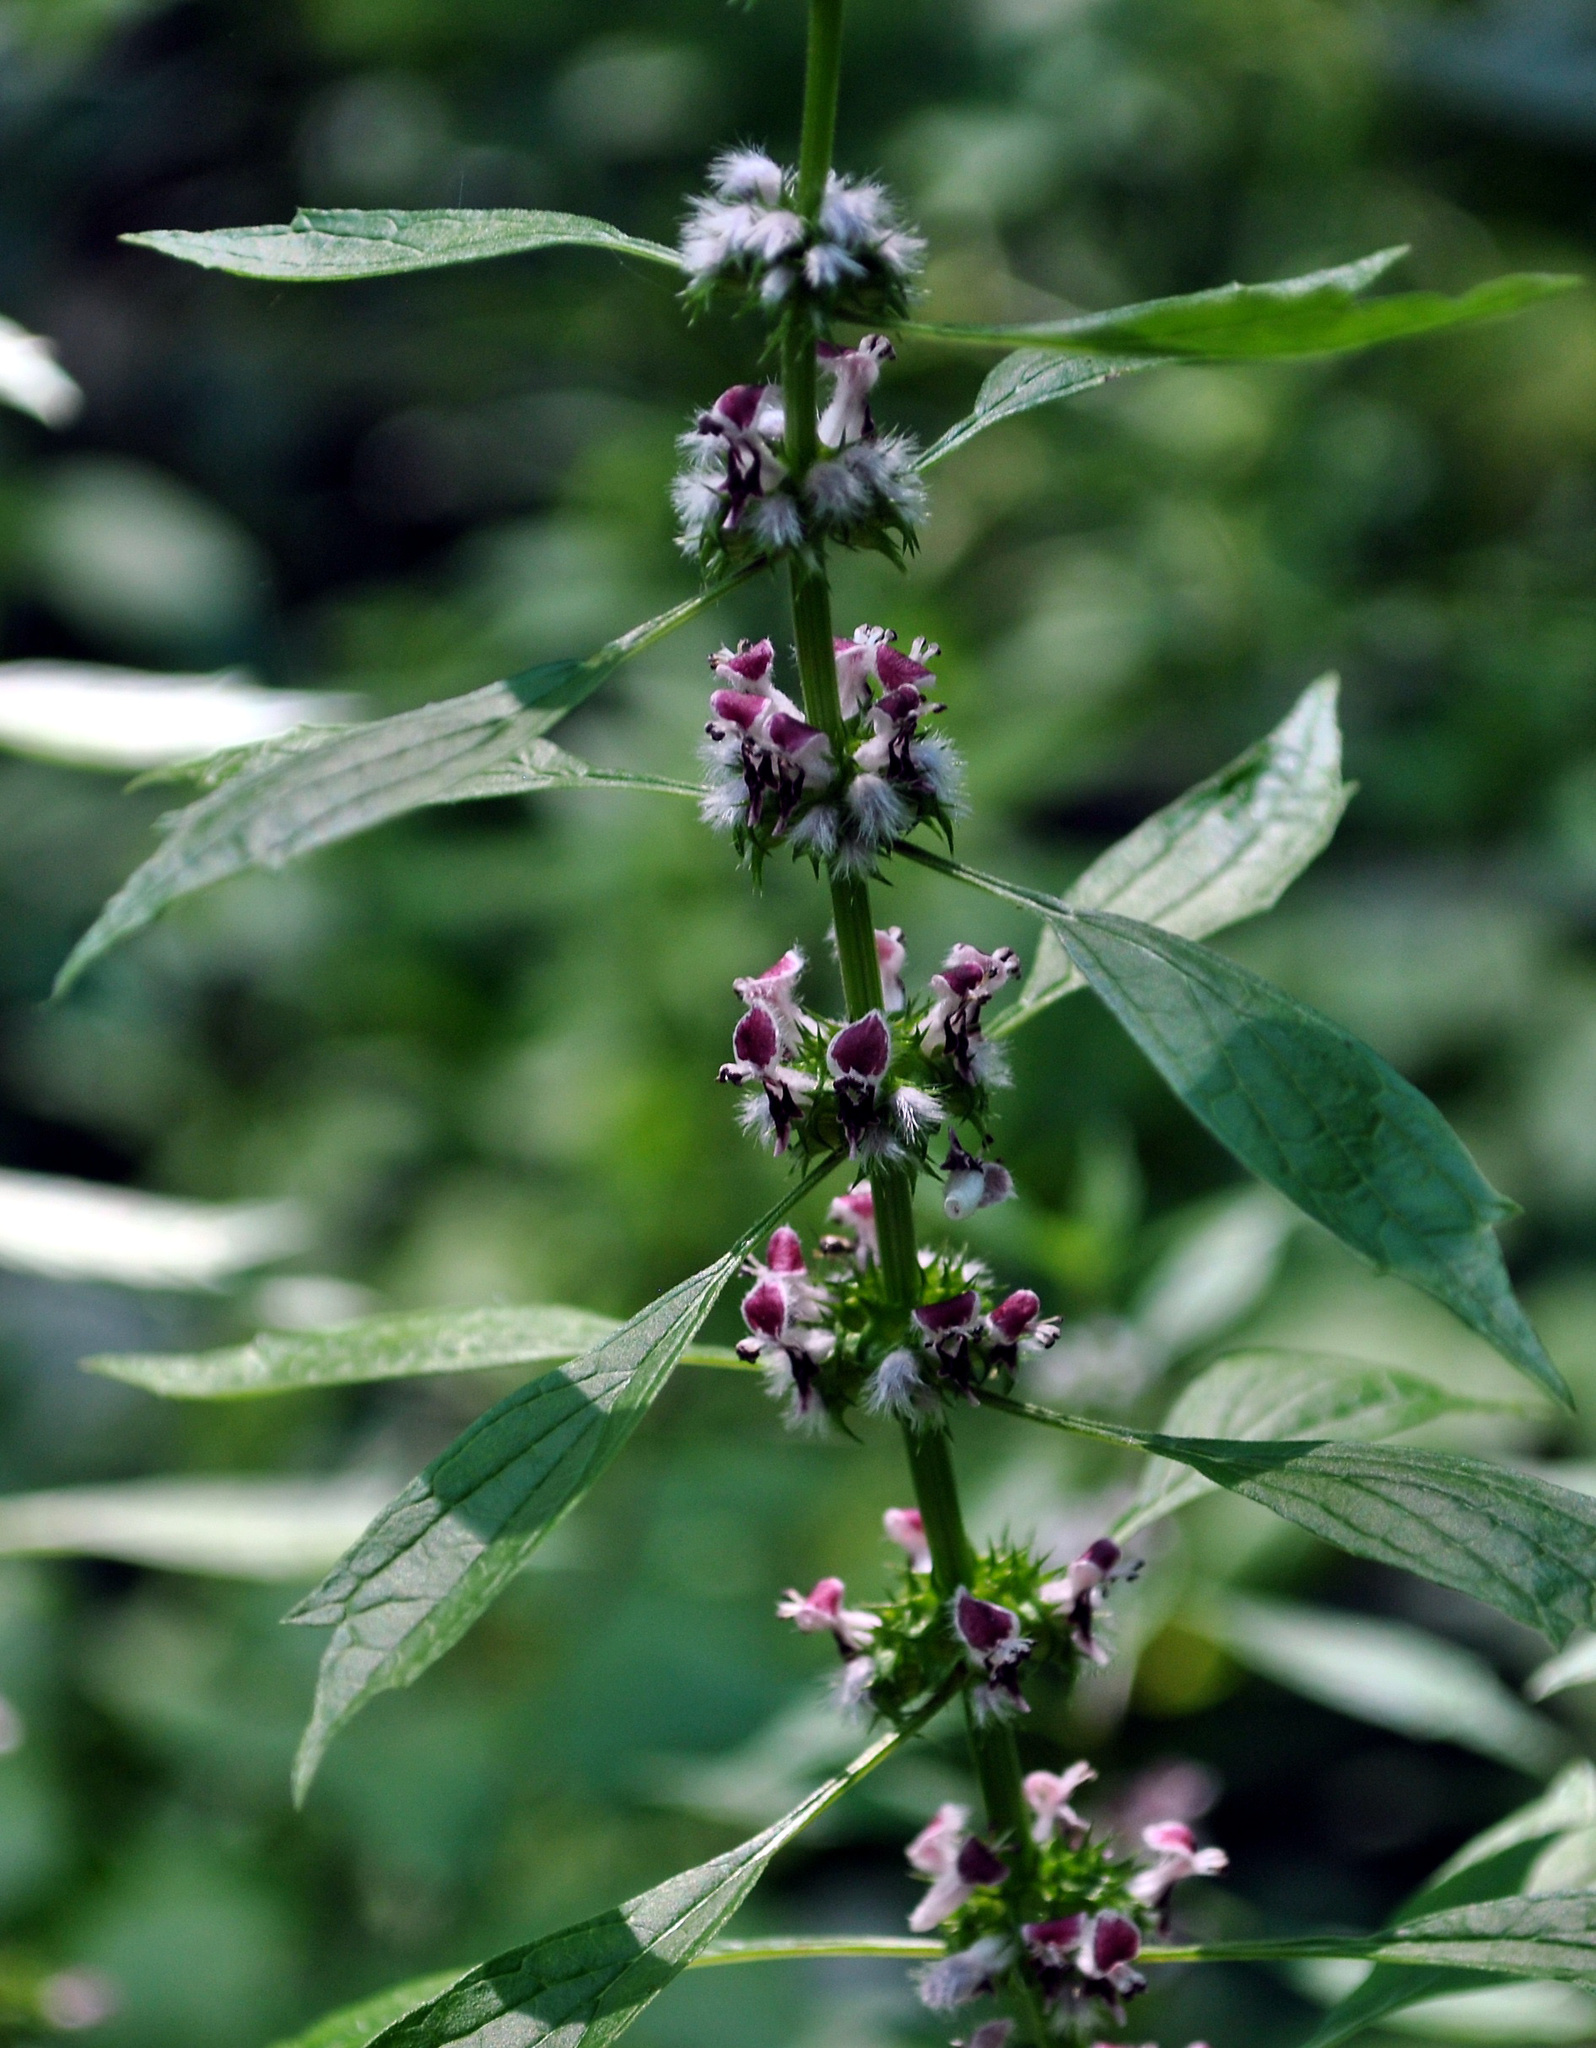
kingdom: Plantae
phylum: Tracheophyta
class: Magnoliopsida
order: Lamiales
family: Lamiaceae
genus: Leonurus
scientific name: Leonurus cardiaca
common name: Motherwort
